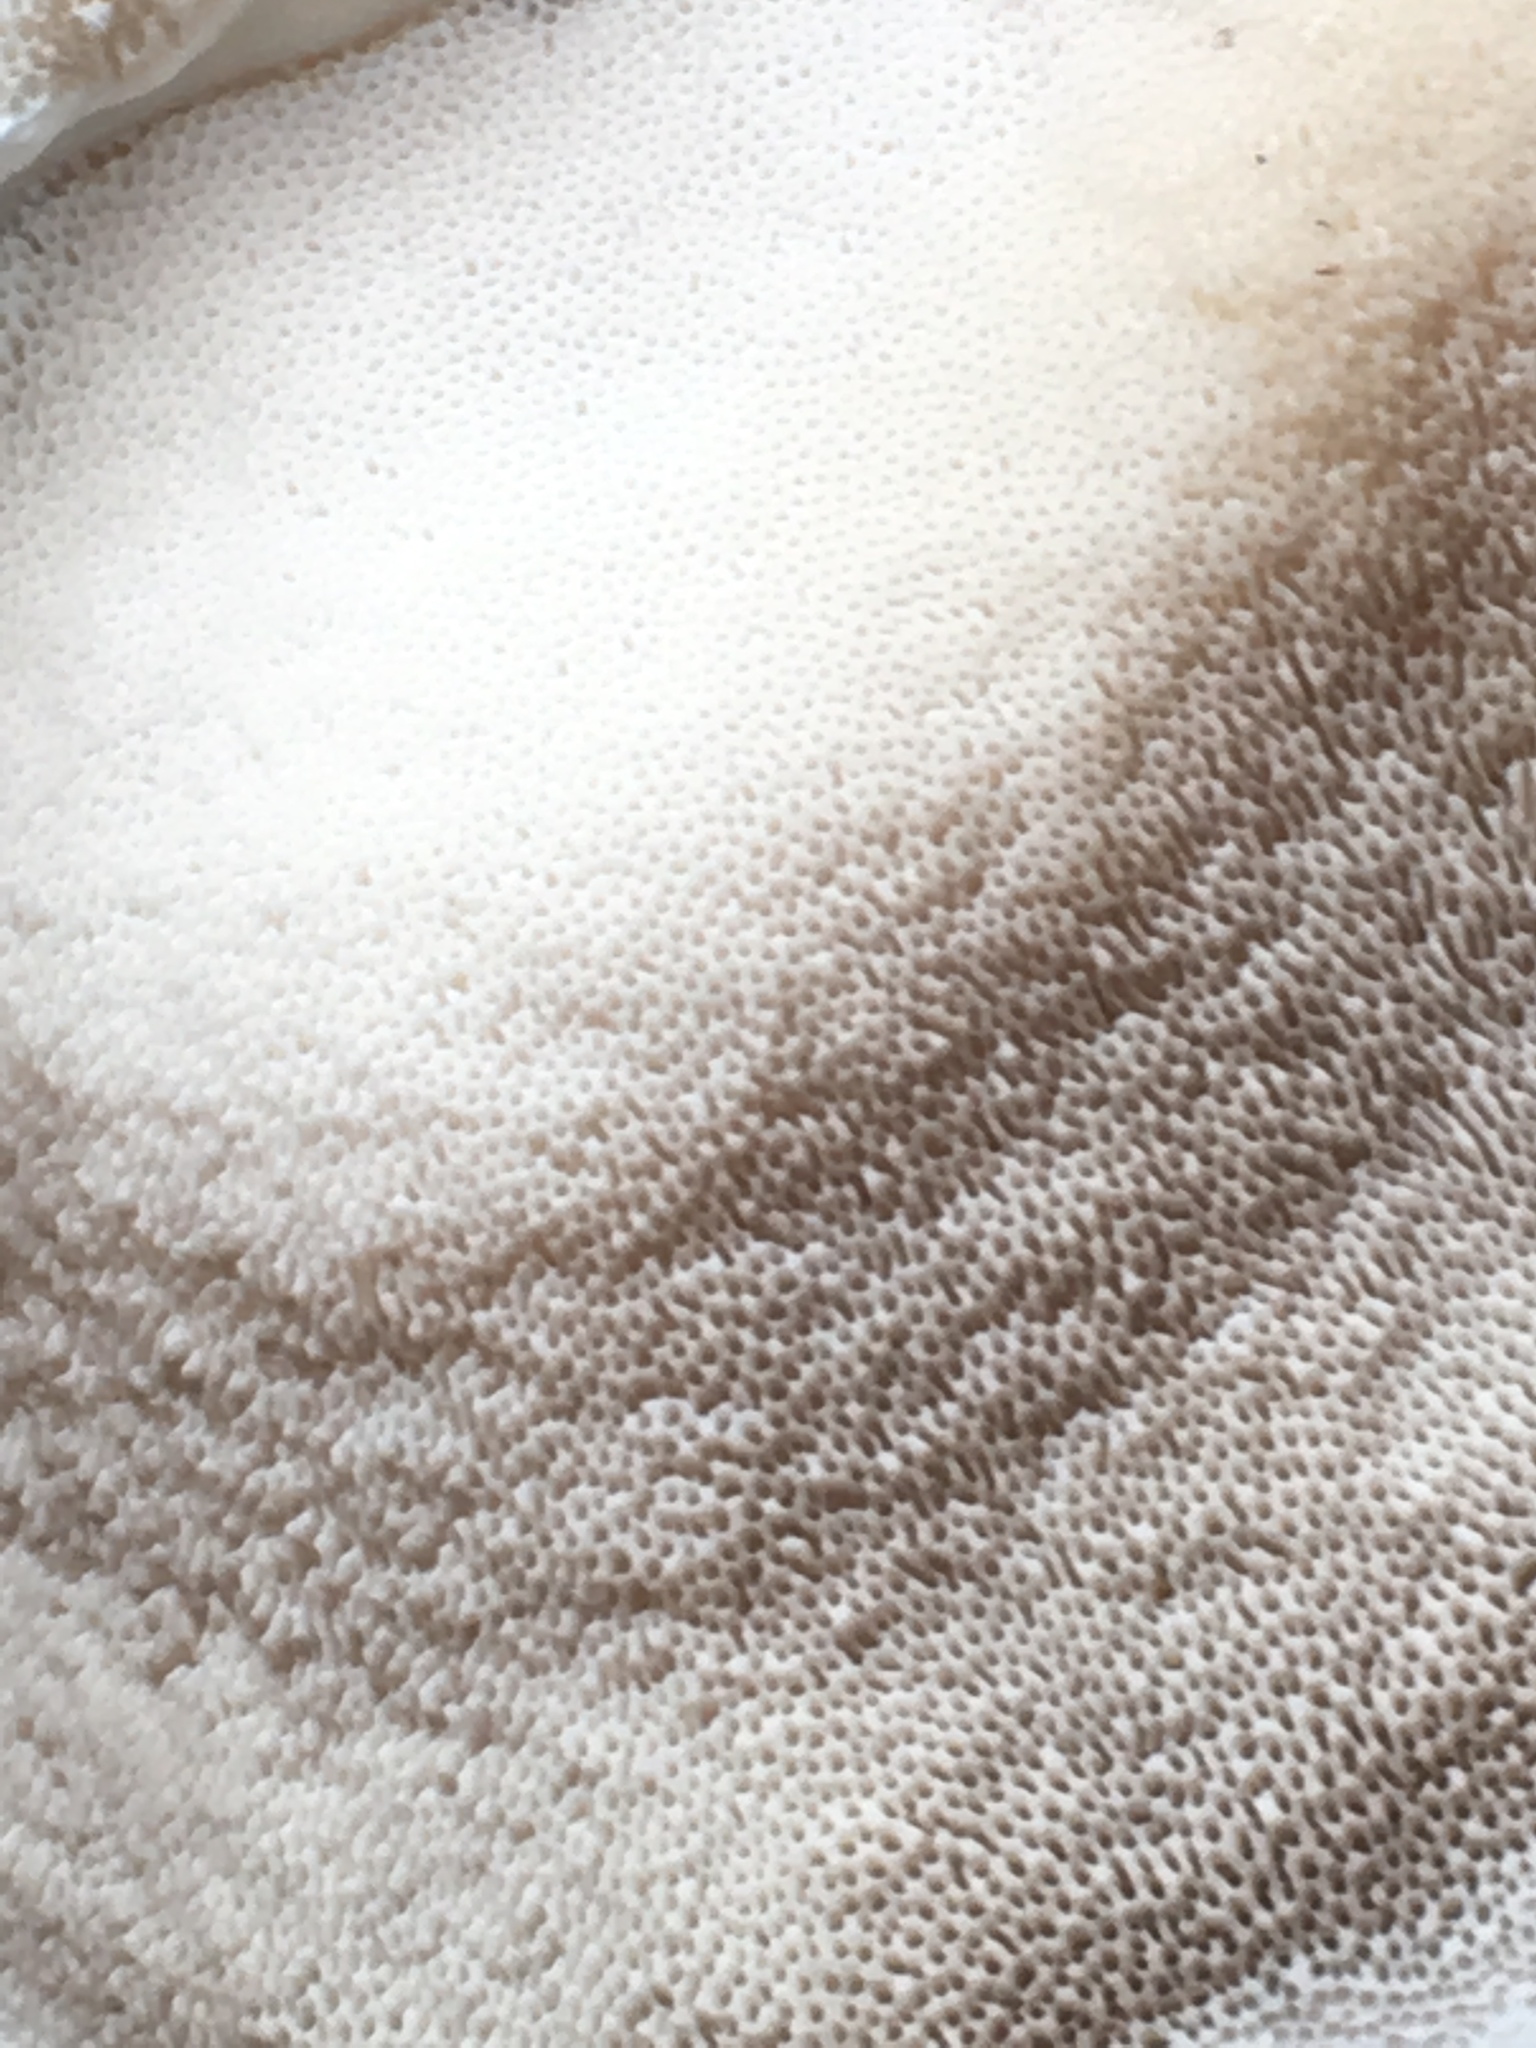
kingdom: Fungi
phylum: Basidiomycota
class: Agaricomycetes
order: Polyporales
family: Polyporaceae
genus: Trametes
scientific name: Trametes versicolor
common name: Turkeytail
